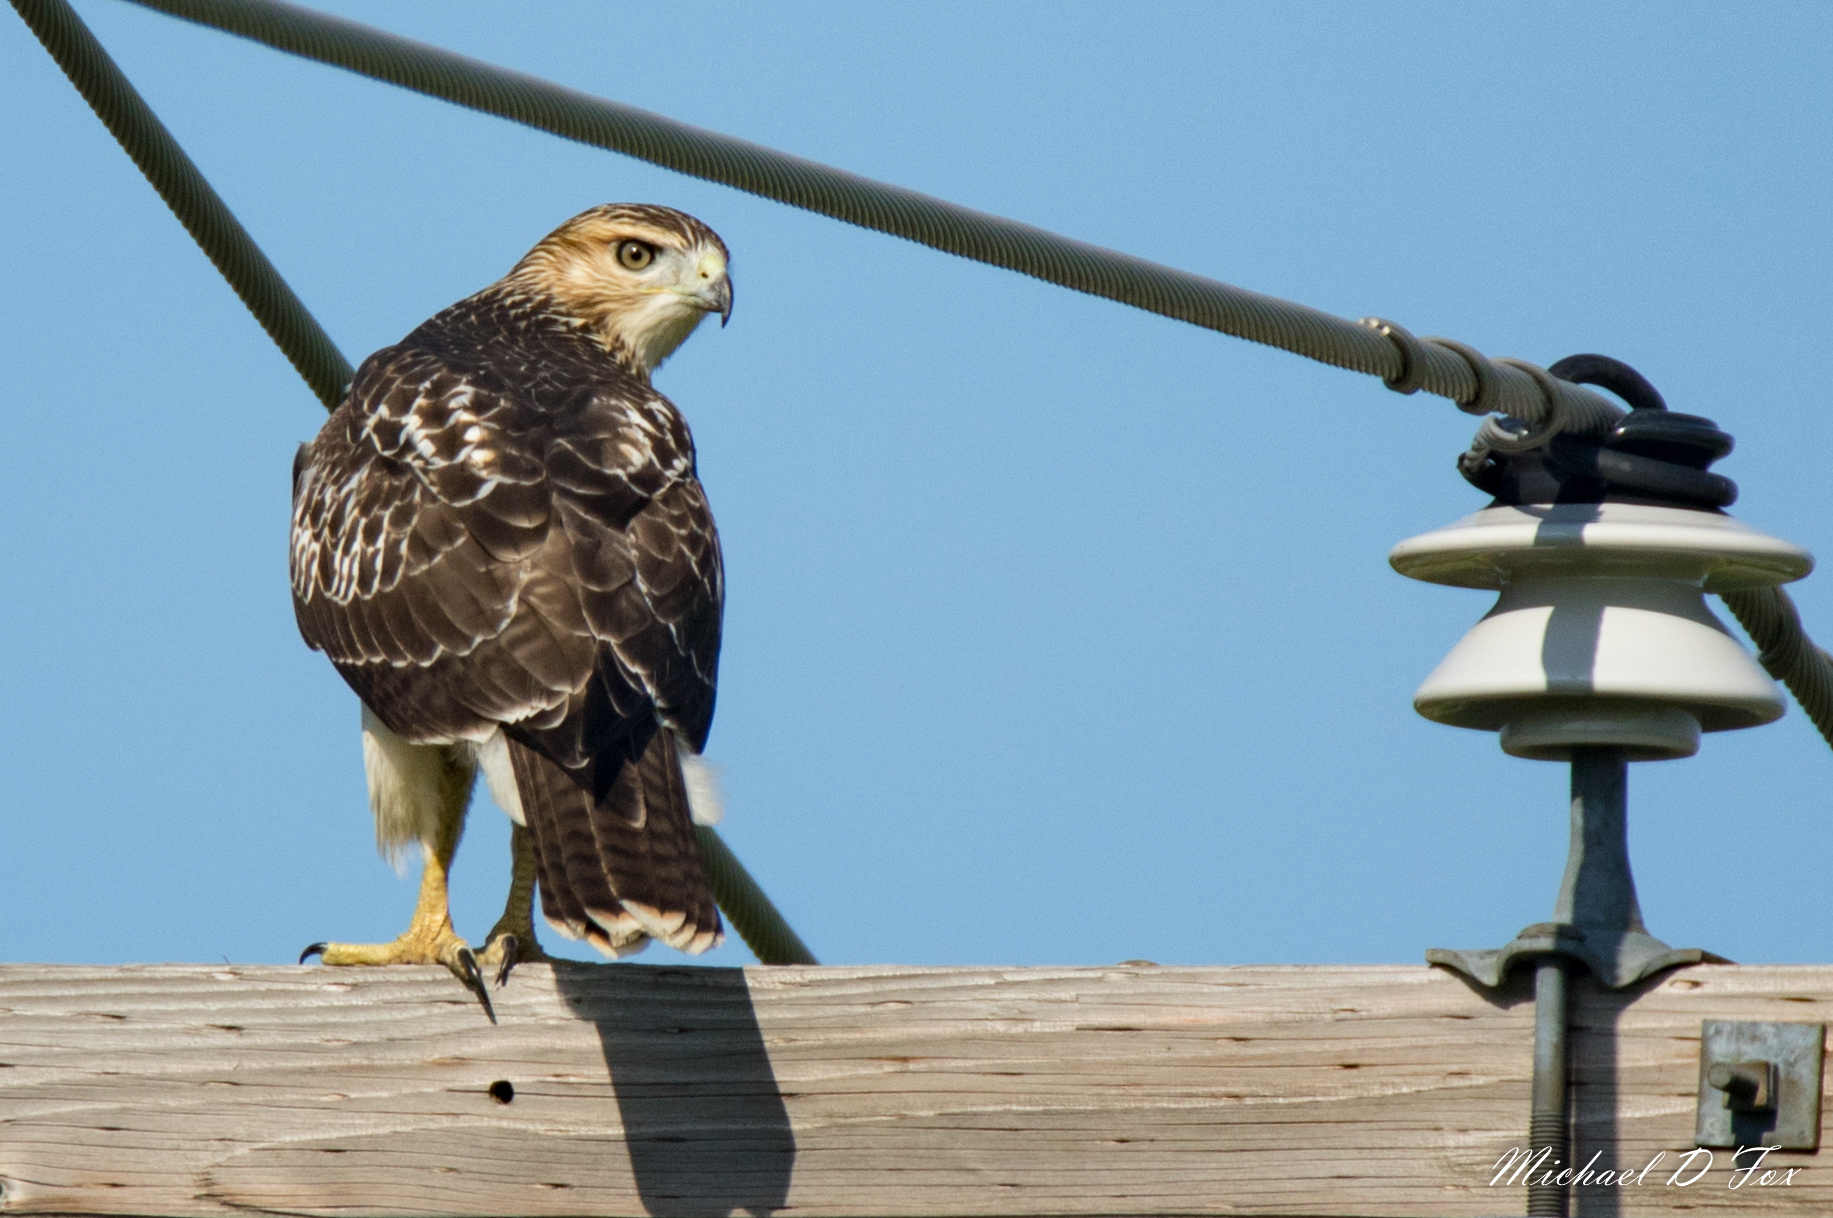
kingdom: Animalia
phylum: Chordata
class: Aves
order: Accipitriformes
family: Accipitridae
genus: Buteo
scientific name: Buteo jamaicensis
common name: Red-tailed hawk
